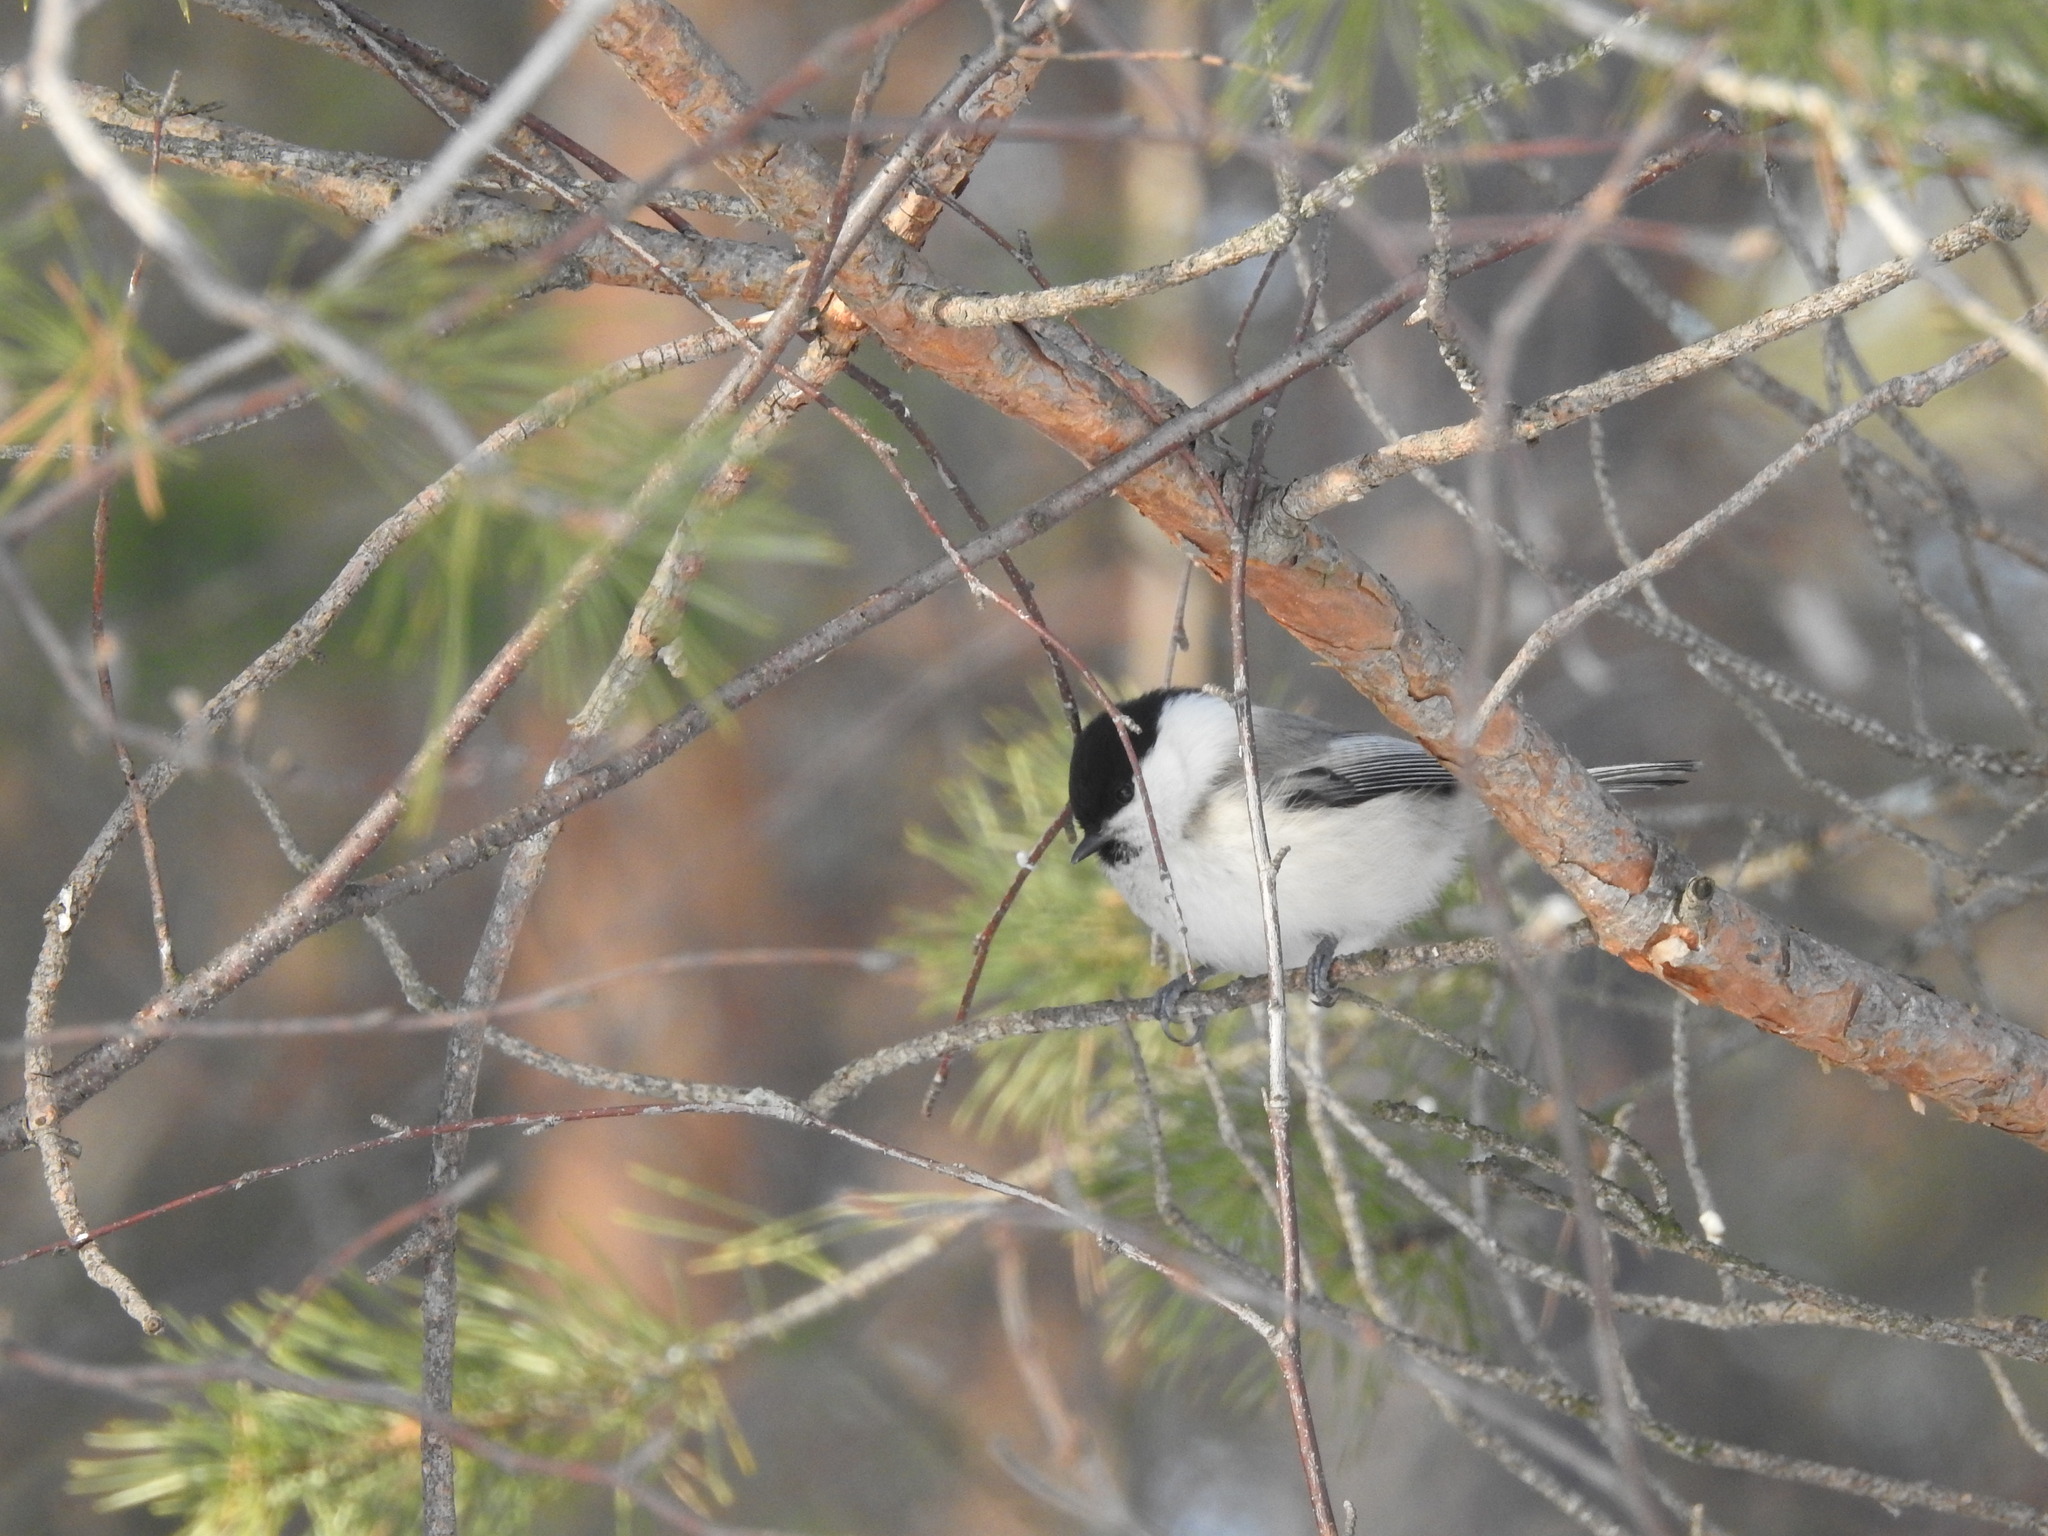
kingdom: Animalia
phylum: Chordata
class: Aves
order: Passeriformes
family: Paridae
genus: Poecile
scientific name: Poecile montanus
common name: Willow tit
